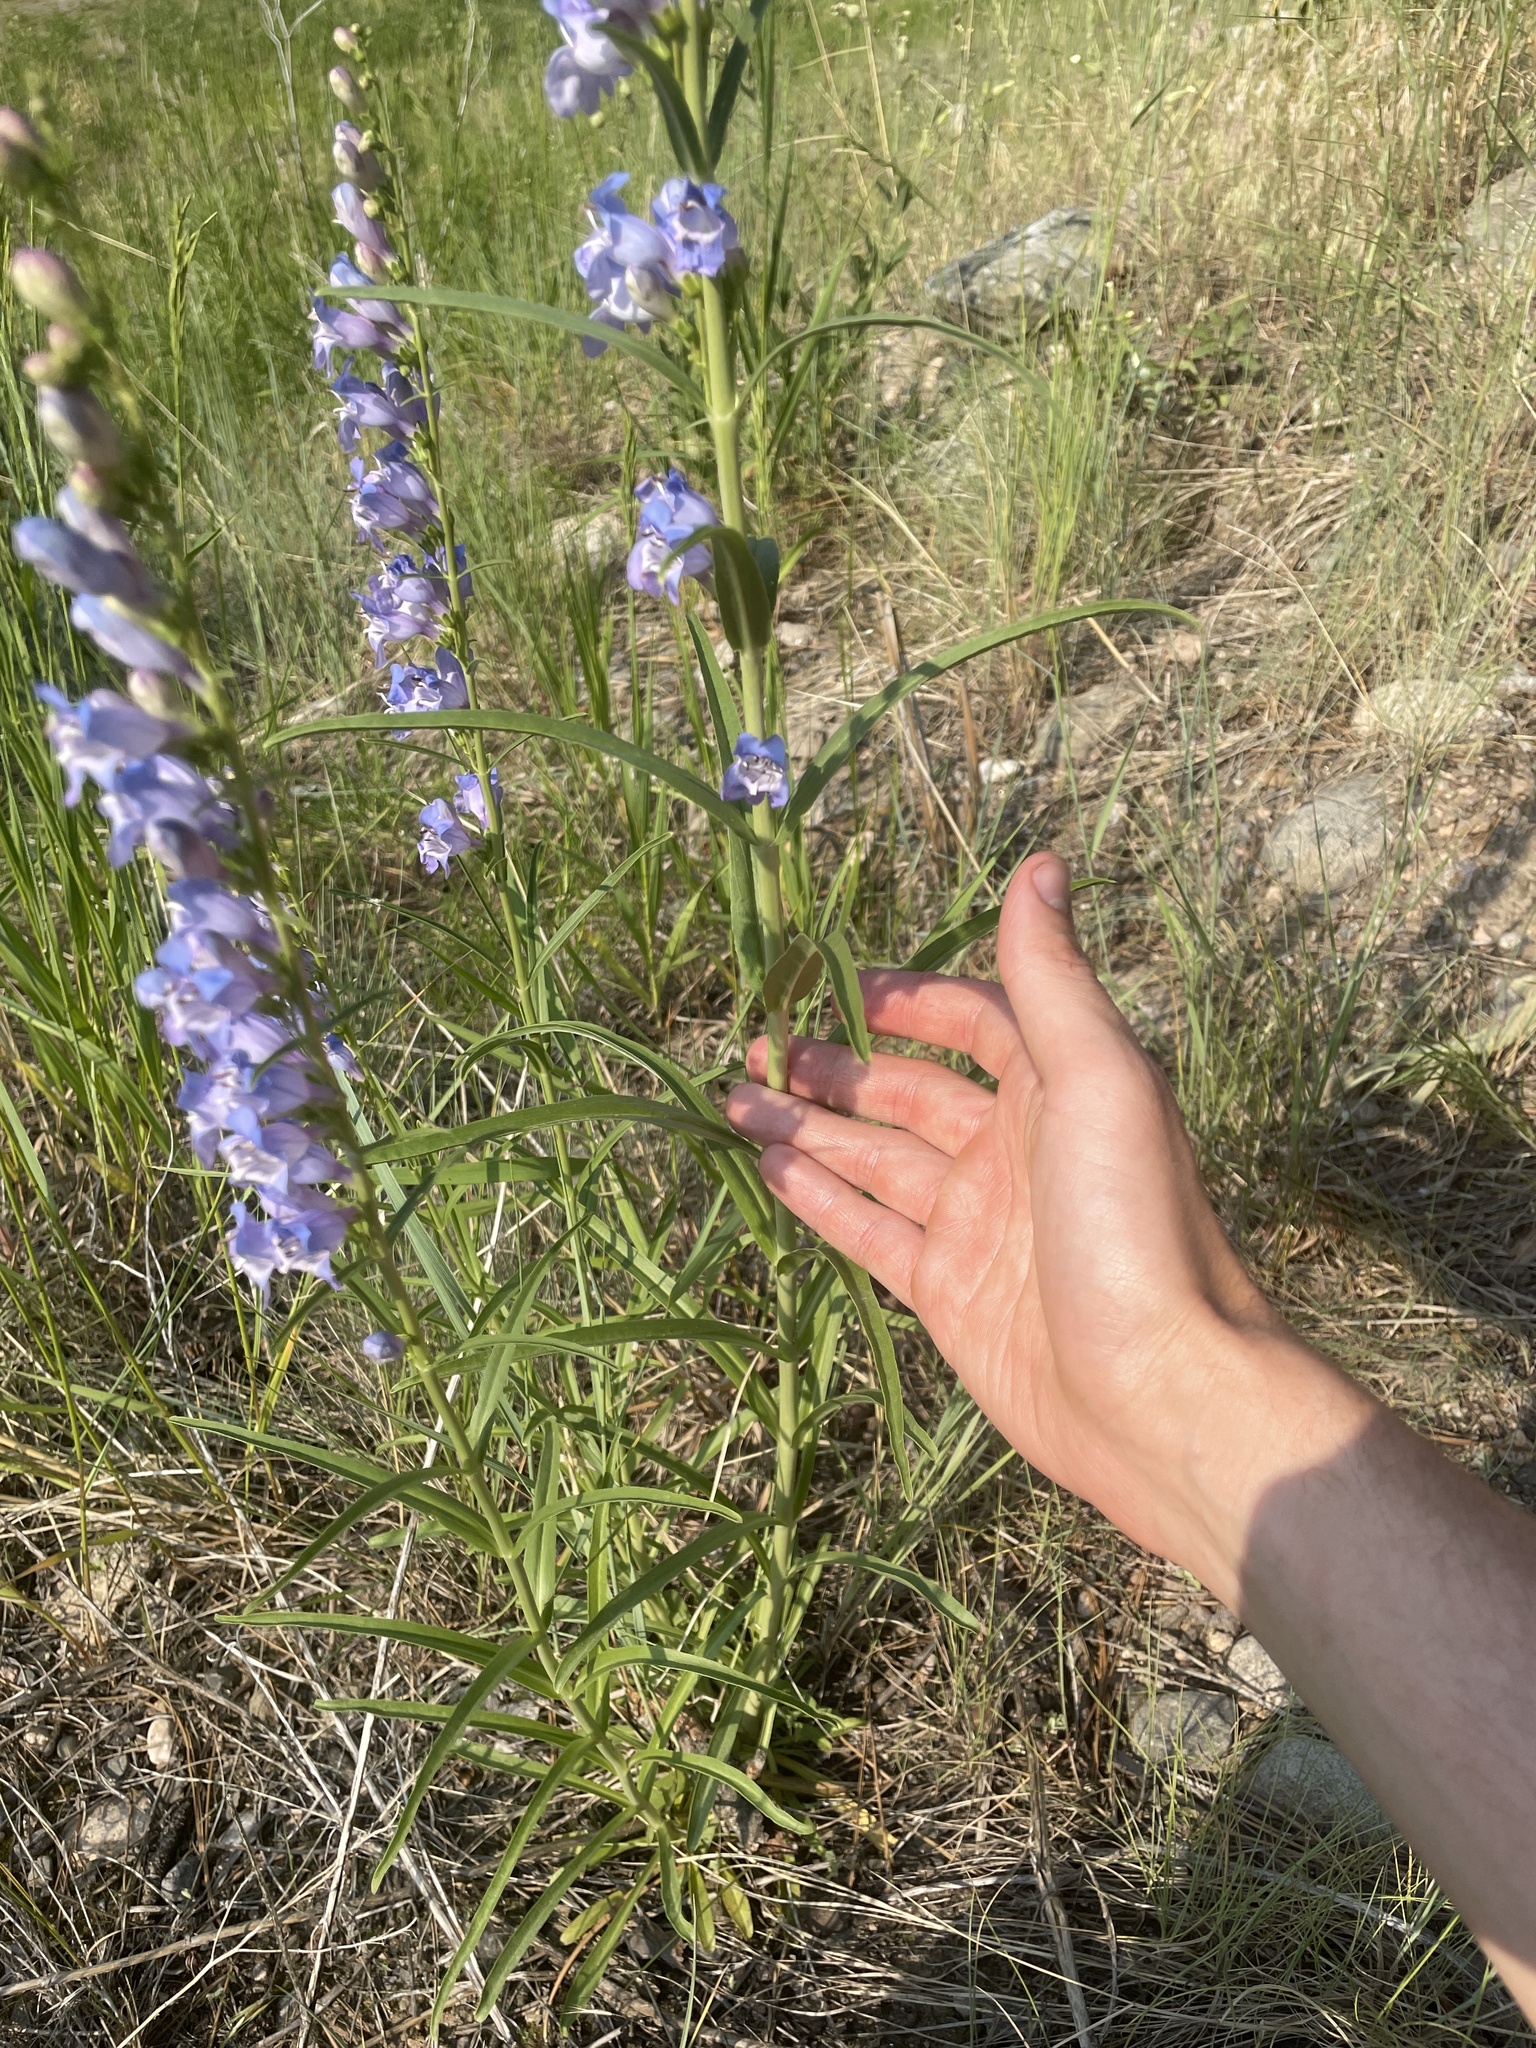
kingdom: Plantae
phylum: Tracheophyta
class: Magnoliopsida
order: Lamiales
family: Plantaginaceae
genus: Penstemon
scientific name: Penstemon virgatus
